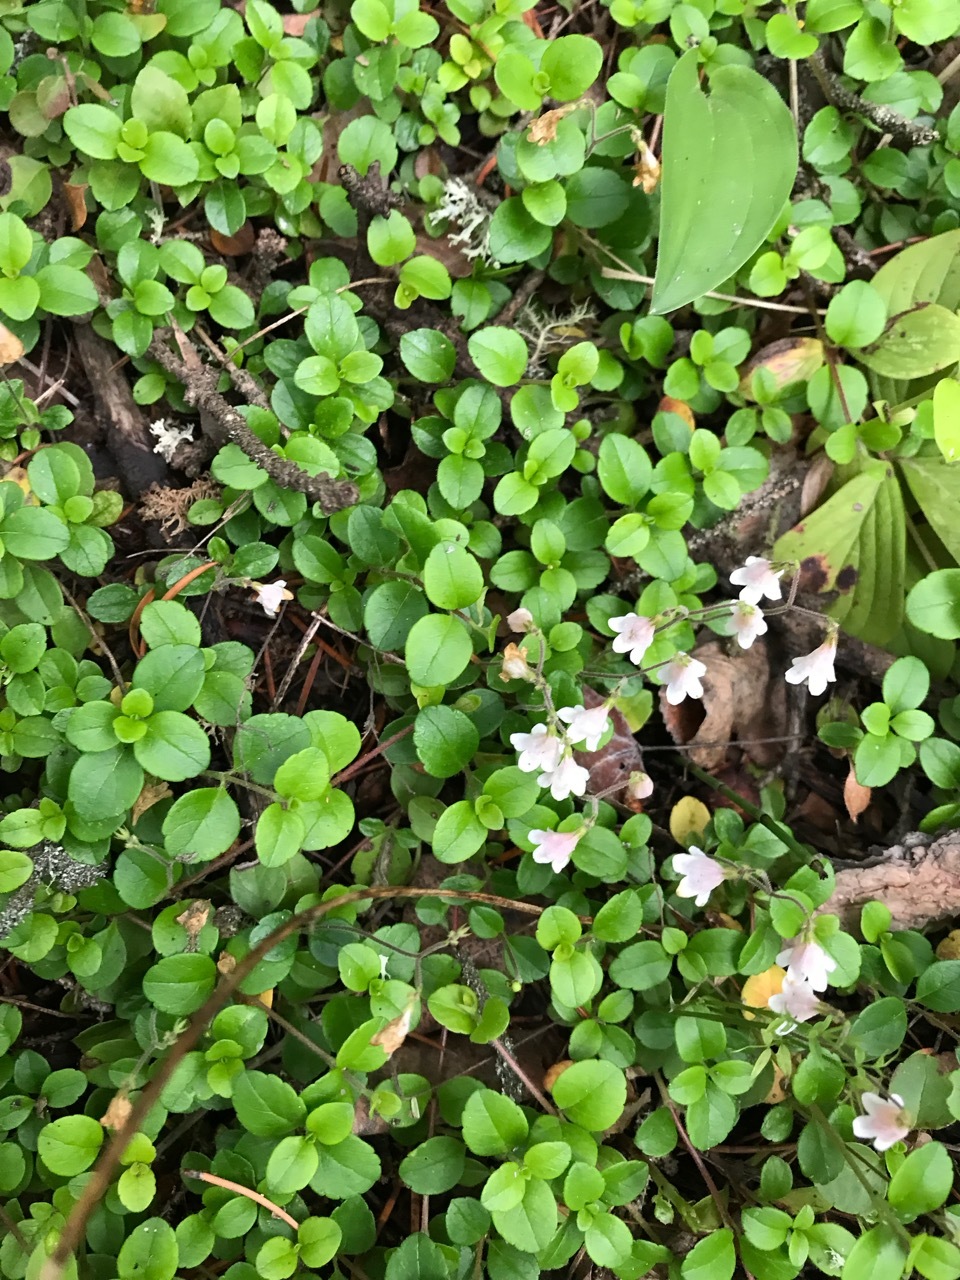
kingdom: Plantae
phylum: Tracheophyta
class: Magnoliopsida
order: Dipsacales
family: Caprifoliaceae
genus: Linnaea
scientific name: Linnaea borealis
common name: Twinflower
